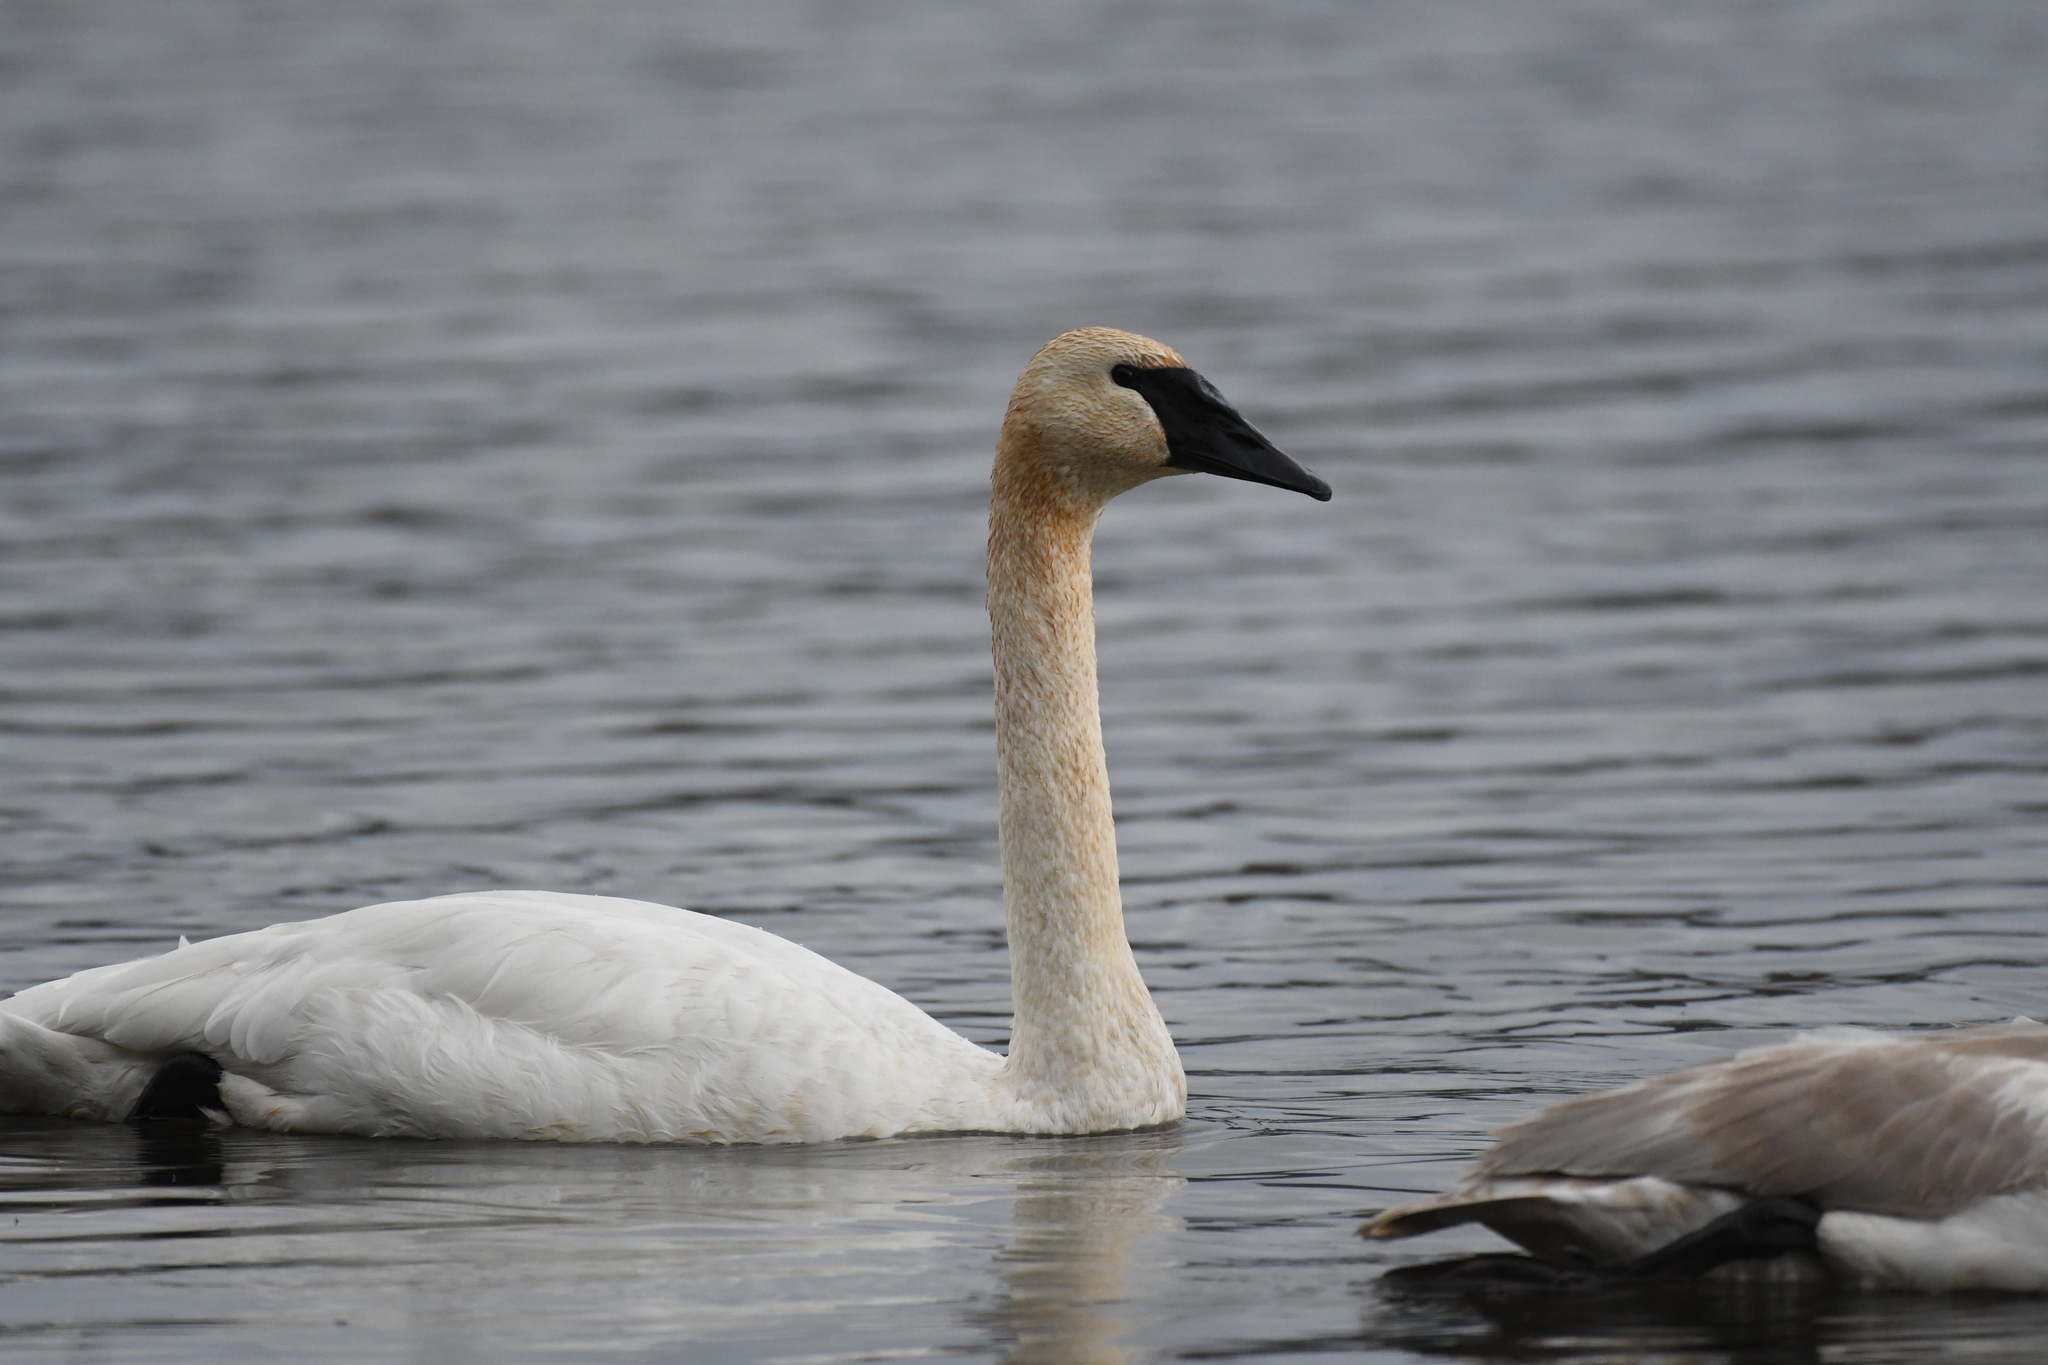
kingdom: Animalia
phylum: Chordata
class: Aves
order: Anseriformes
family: Anatidae
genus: Cygnus
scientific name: Cygnus buccinator
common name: Trumpeter swan
